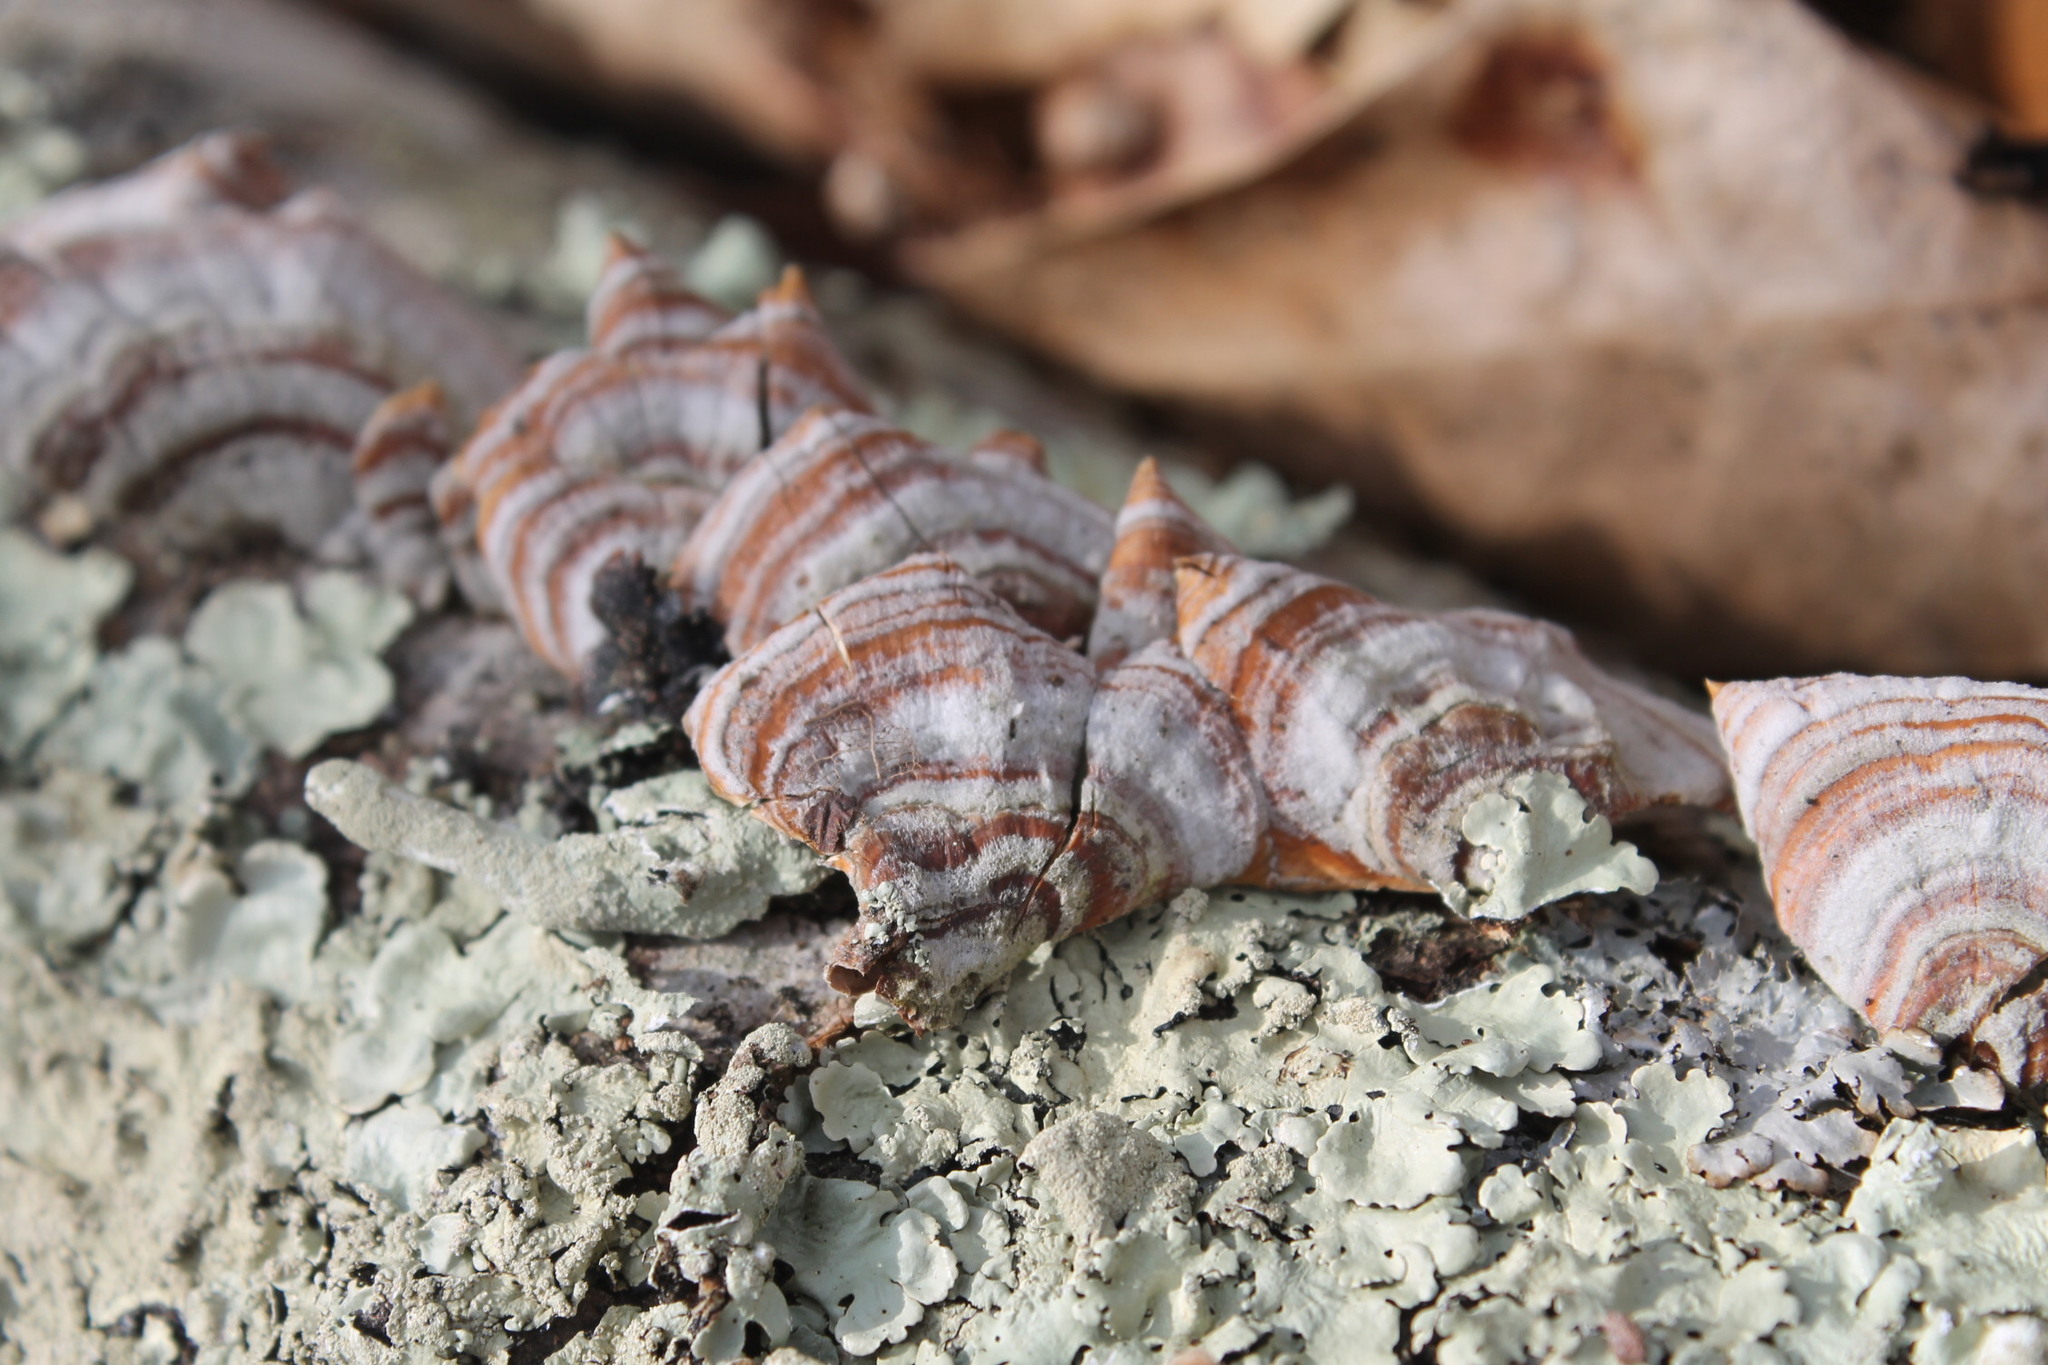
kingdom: Fungi
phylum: Basidiomycota
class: Agaricomycetes
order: Russulales
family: Stereaceae
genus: Stereum
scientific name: Stereum lobatum
